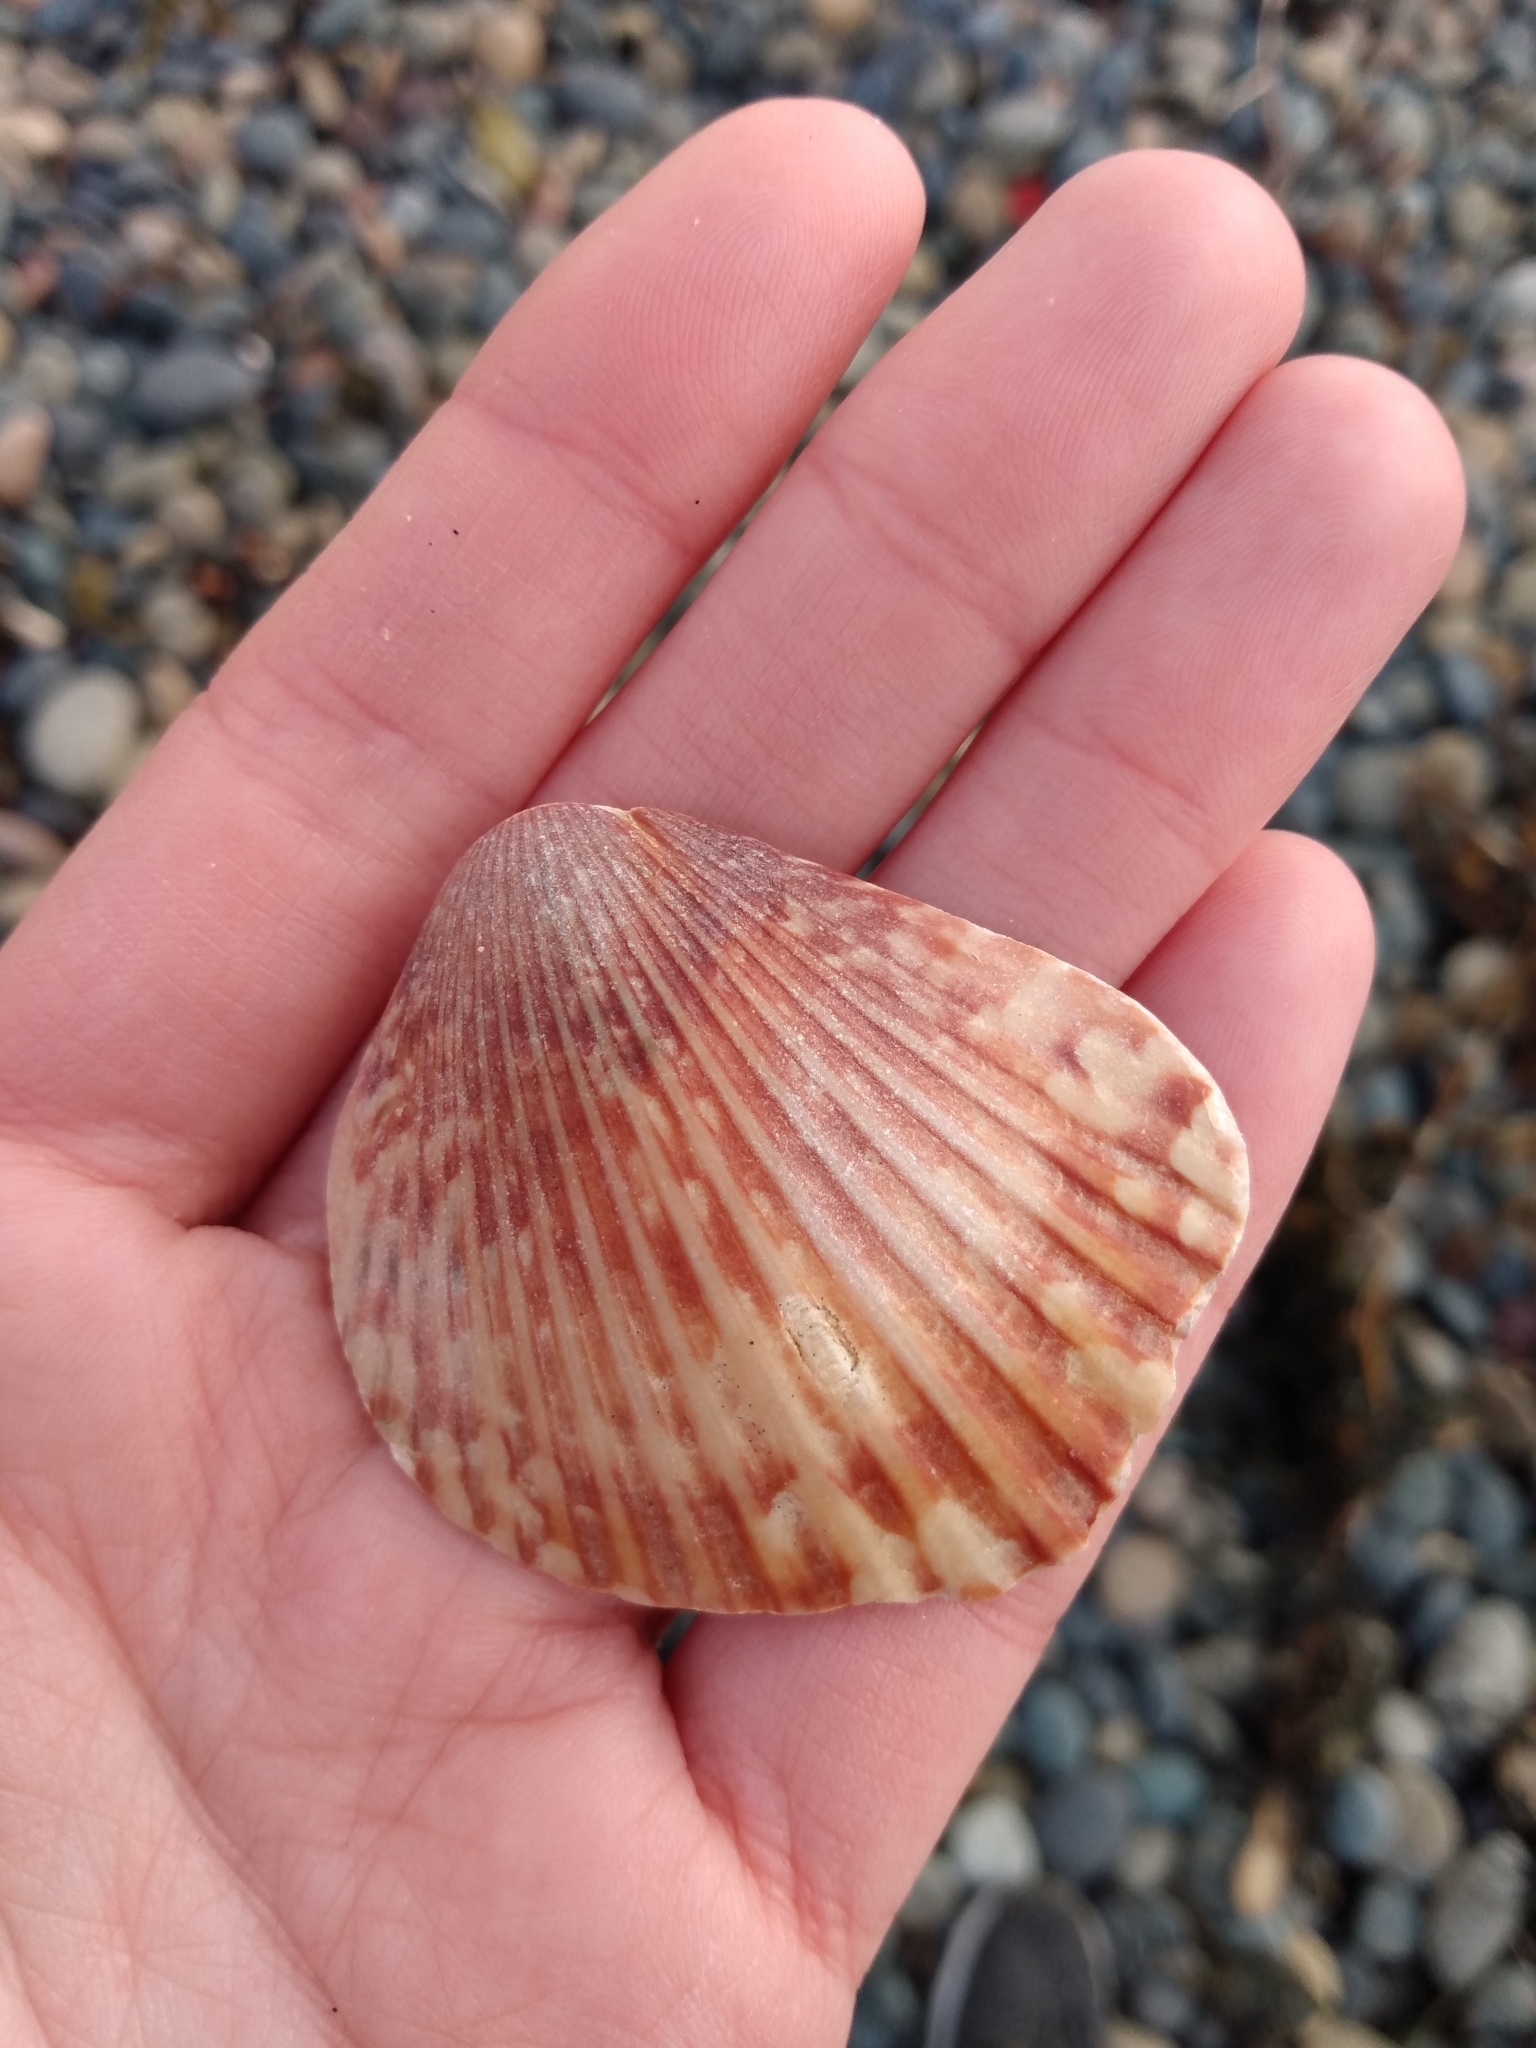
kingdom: Animalia
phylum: Mollusca
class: Bivalvia
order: Pectinida
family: Pectinidae
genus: Argopecten
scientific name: Argopecten ventricosus
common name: Catarina scallop
